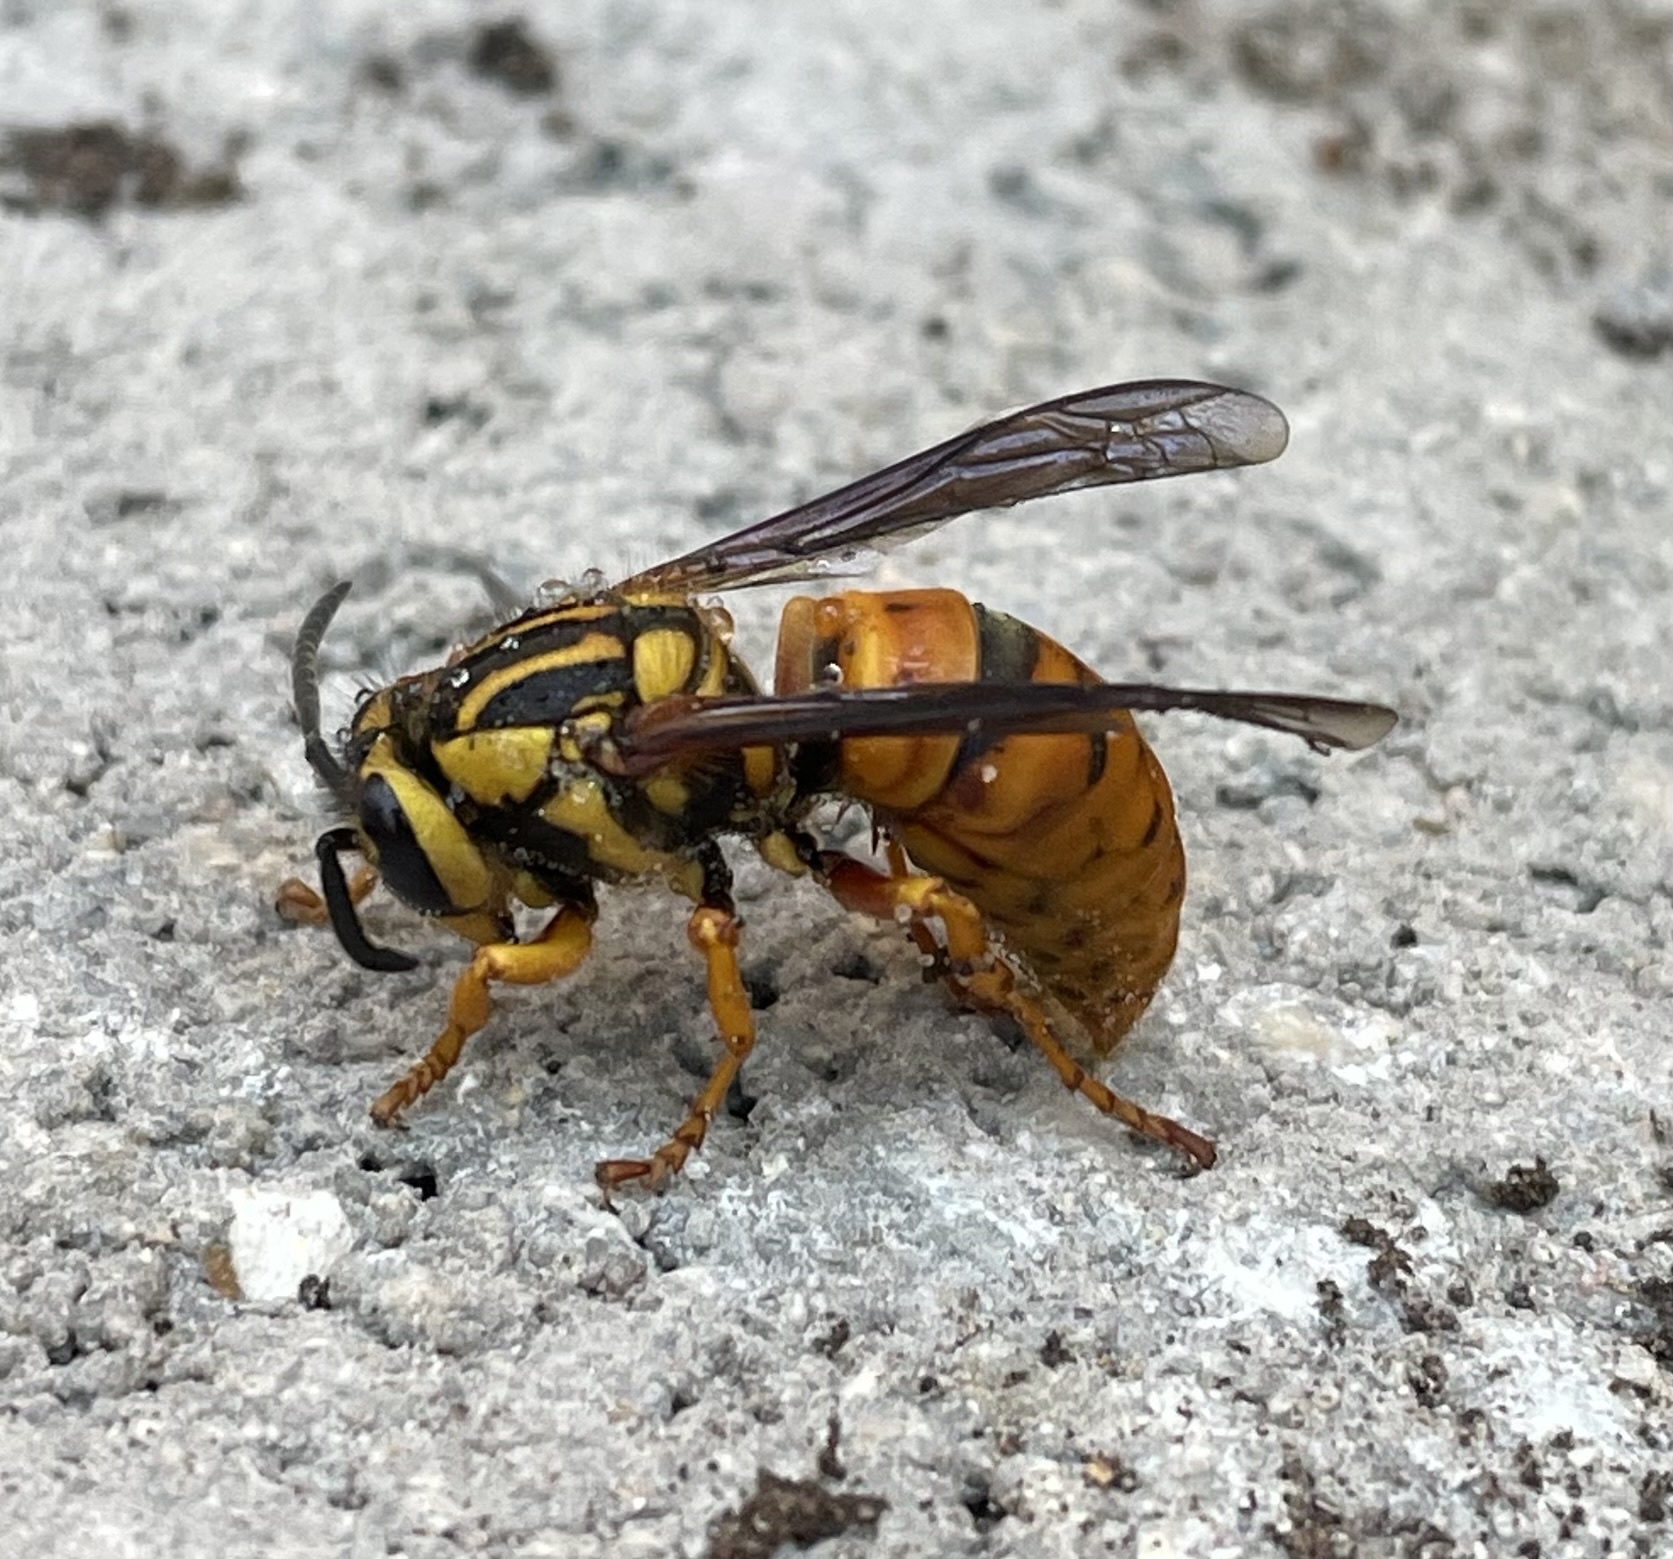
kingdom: Animalia
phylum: Arthropoda
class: Insecta
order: Hymenoptera
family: Vespidae
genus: Vespula
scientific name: Vespula squamosa
